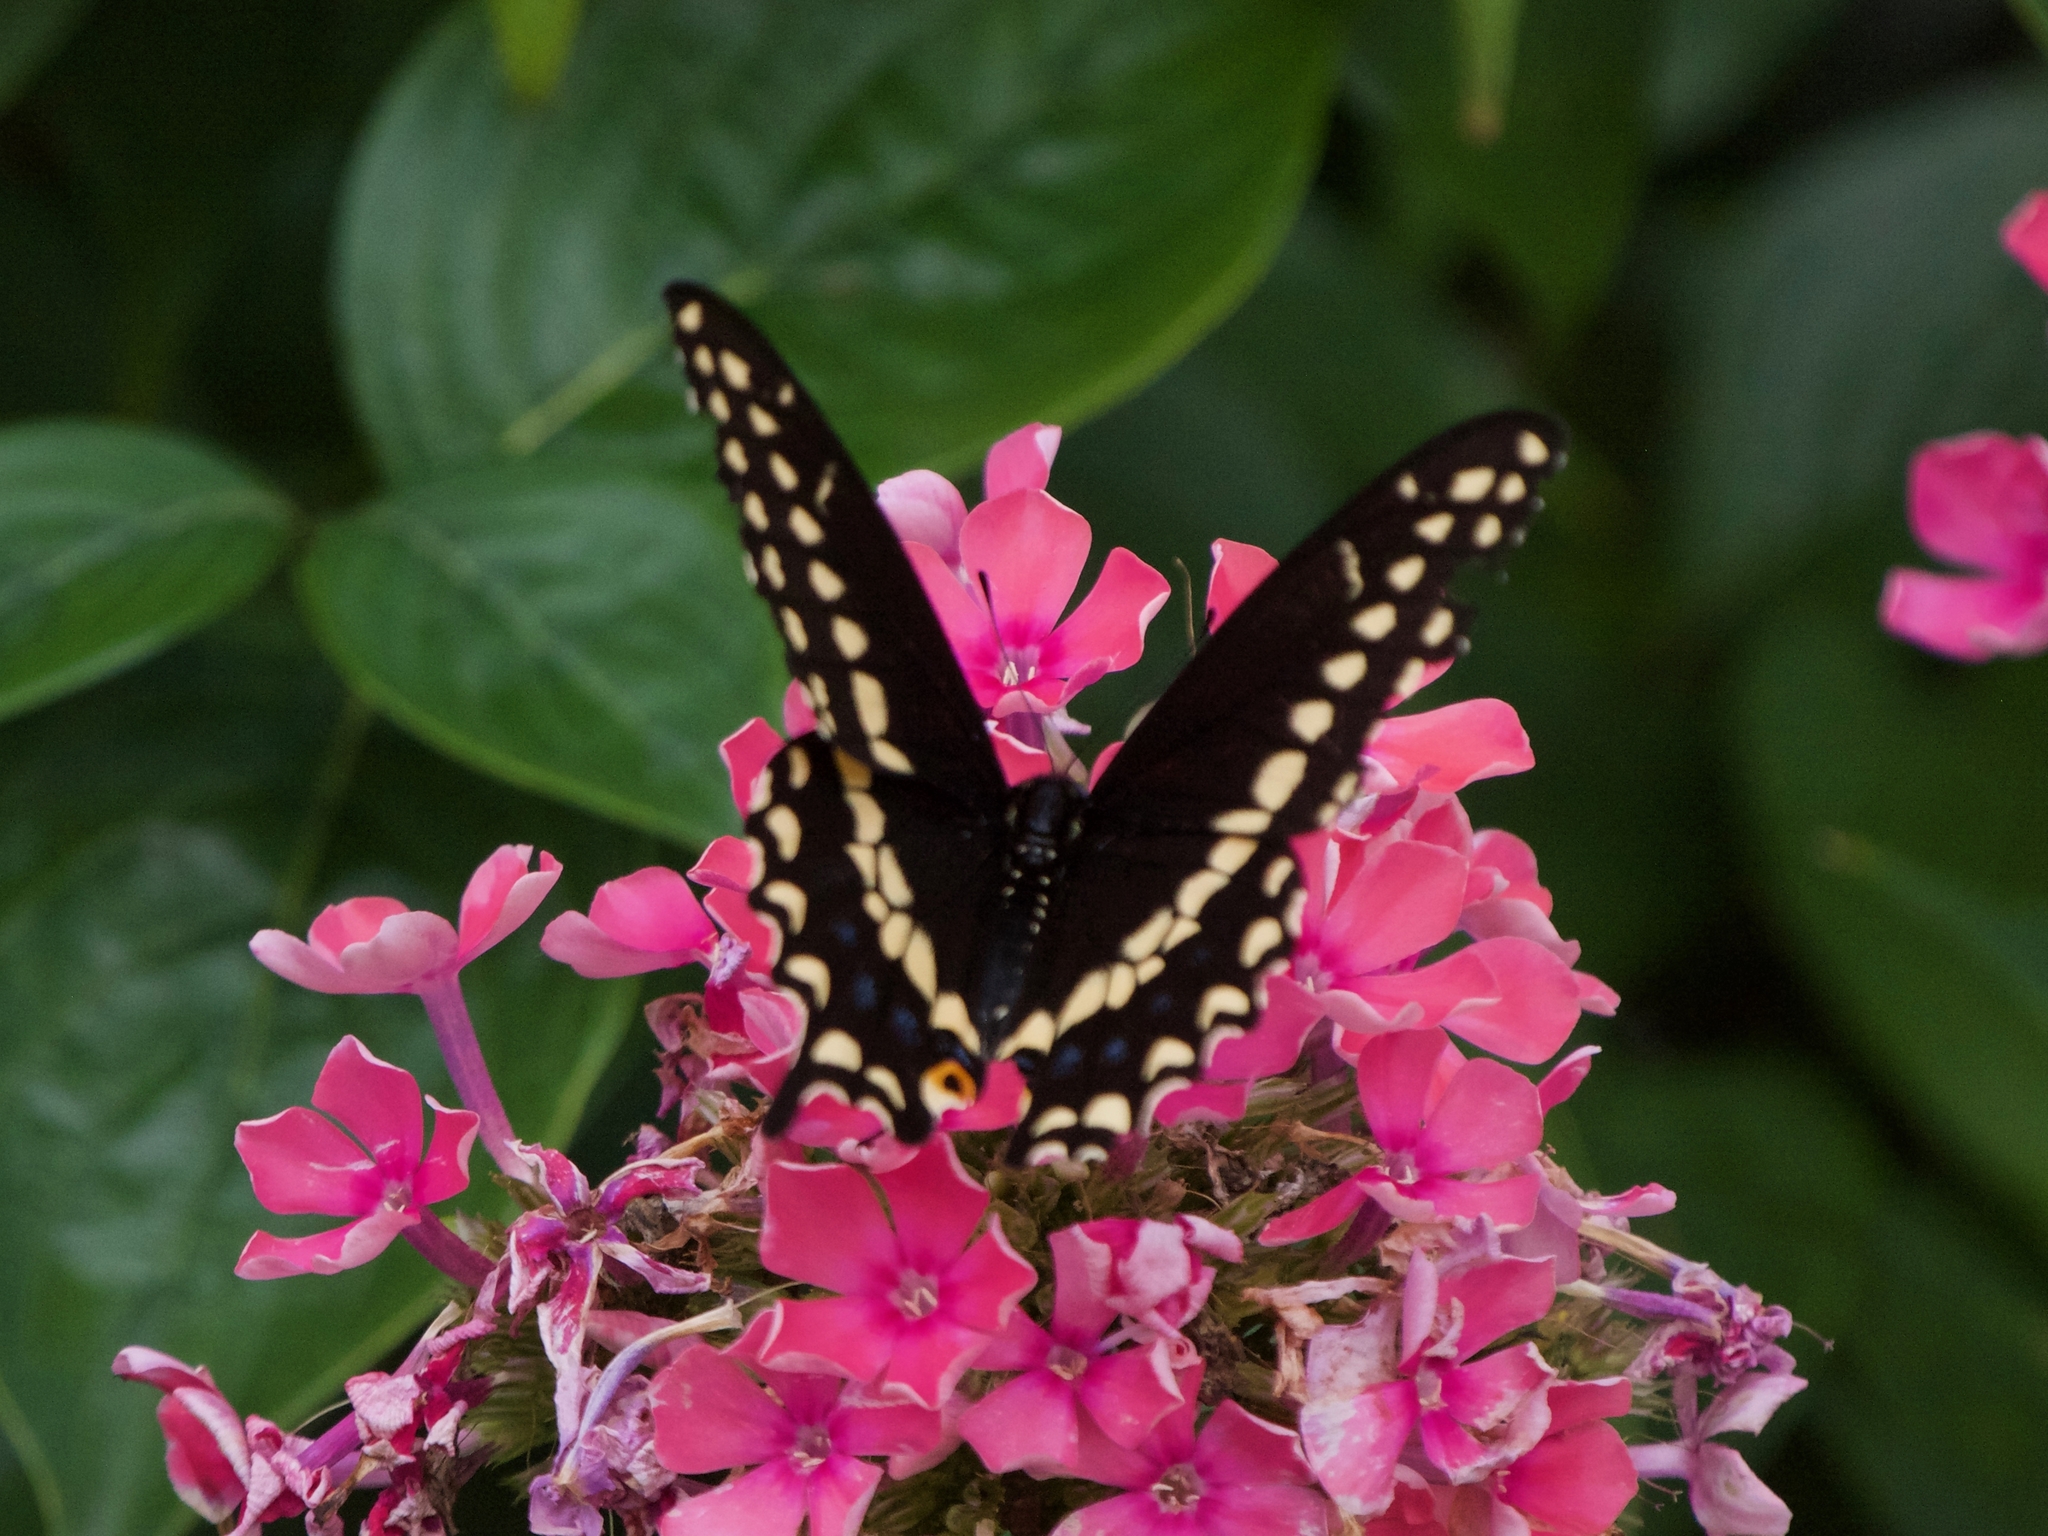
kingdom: Animalia
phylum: Arthropoda
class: Insecta
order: Lepidoptera
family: Papilionidae
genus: Papilio
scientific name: Papilio polyxenes
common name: Black swallowtail
